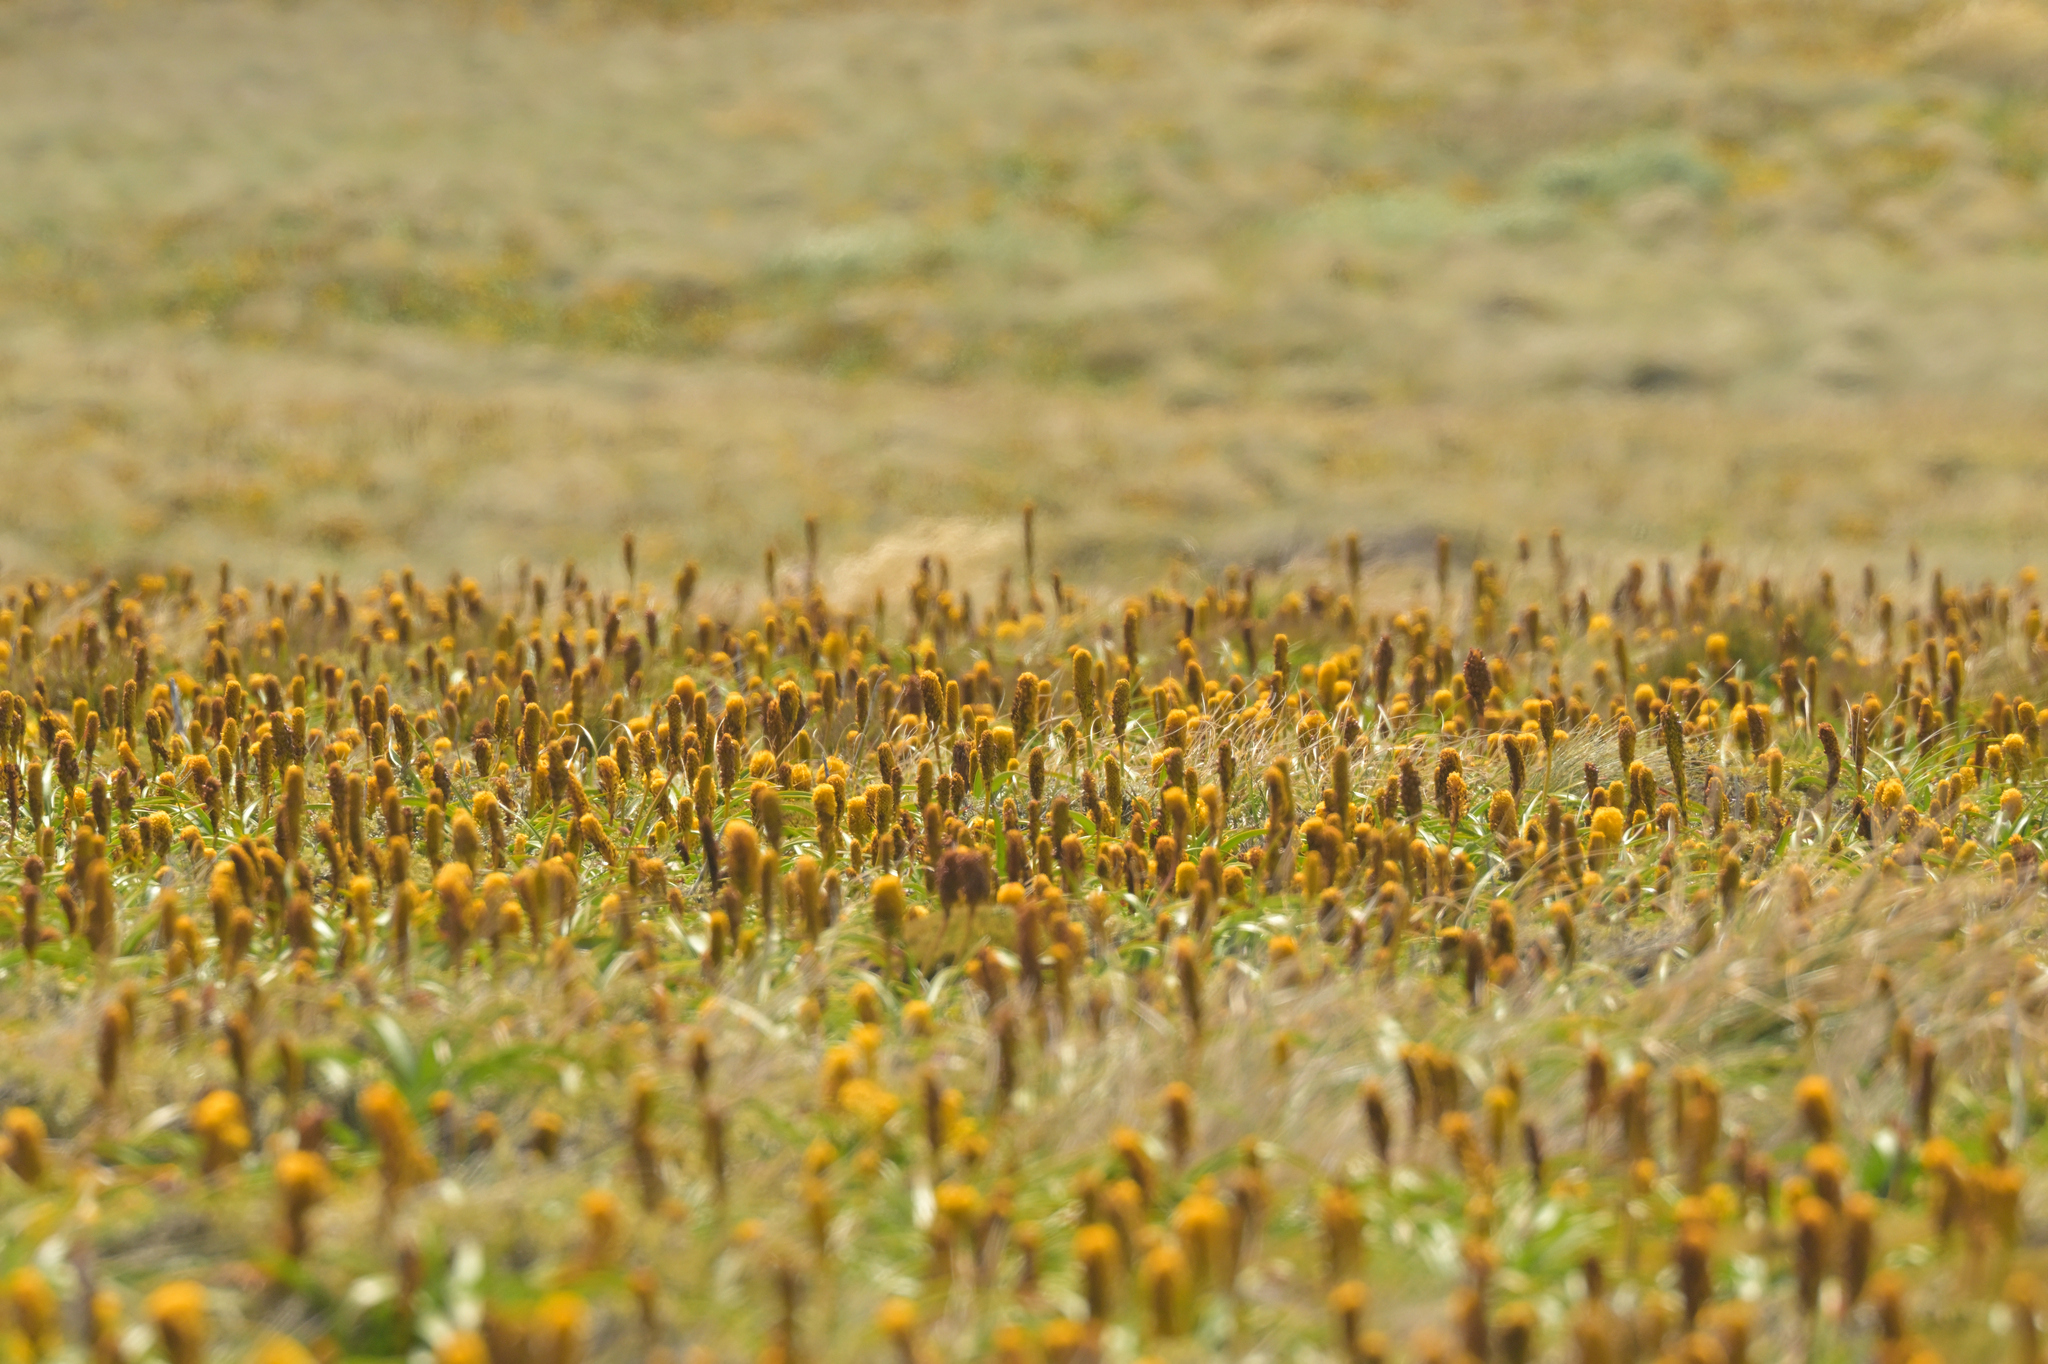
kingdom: Plantae
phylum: Tracheophyta
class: Liliopsida
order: Asparagales
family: Asphodelaceae
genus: Bulbinella
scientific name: Bulbinella rossii
